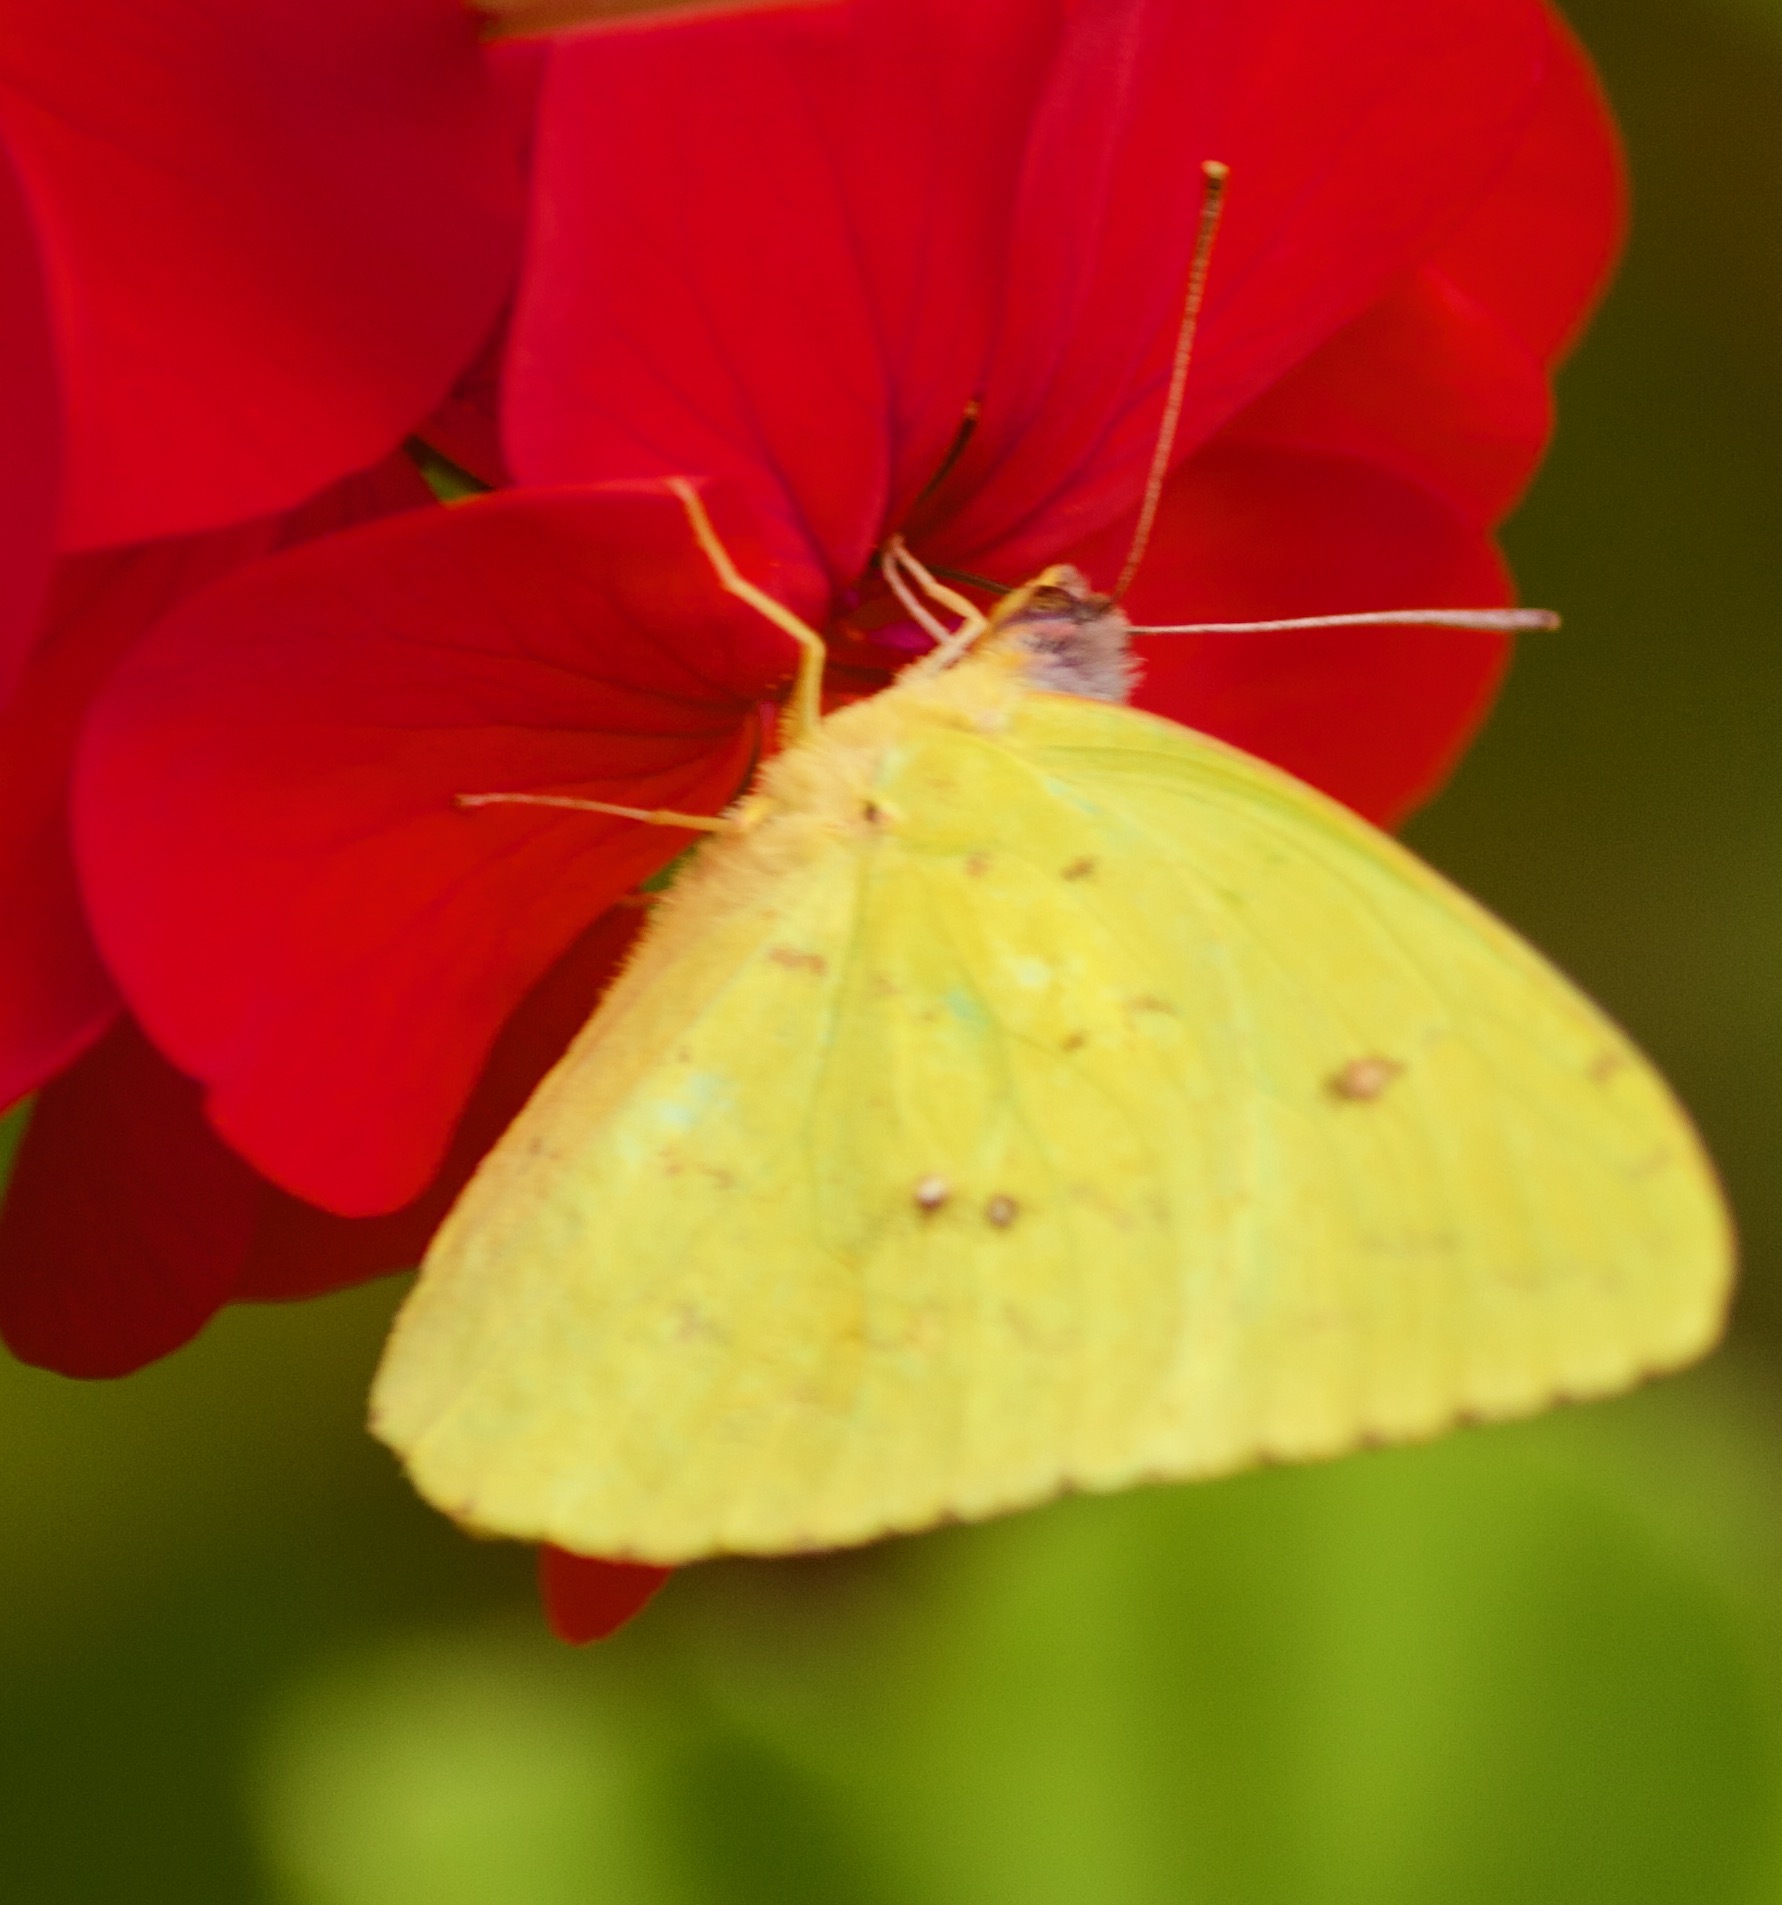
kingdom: Animalia
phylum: Arthropoda
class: Insecta
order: Lepidoptera
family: Pieridae
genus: Phoebis
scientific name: Phoebis sennae
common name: Cloudless sulphur
